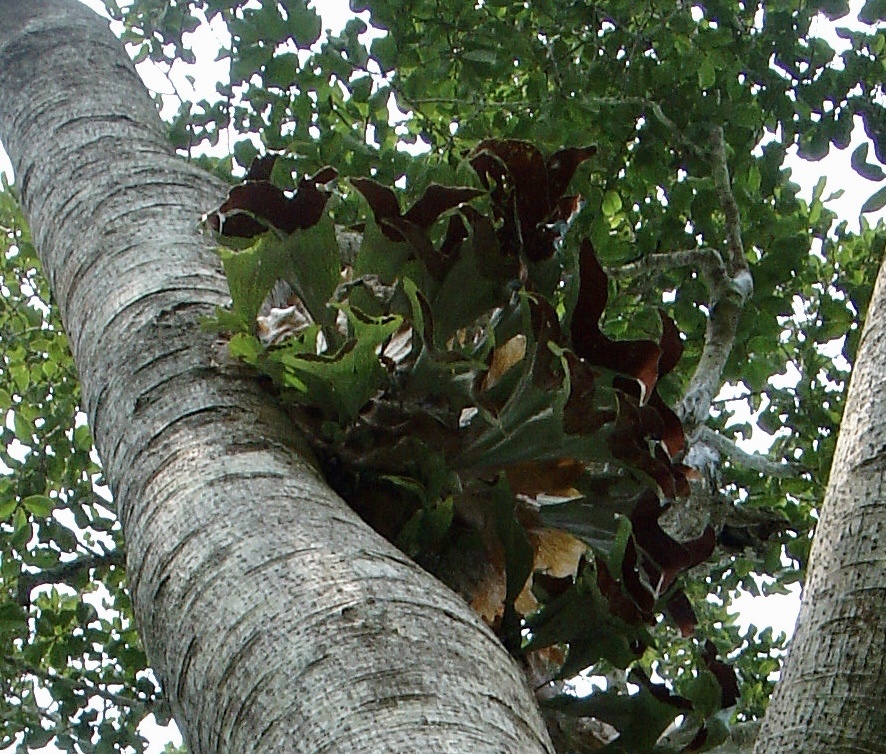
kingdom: Plantae
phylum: Tracheophyta
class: Polypodiopsida
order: Polypodiales
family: Polypodiaceae
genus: Platycerium
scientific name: Platycerium stemaria
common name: Triangular staghorn fern
